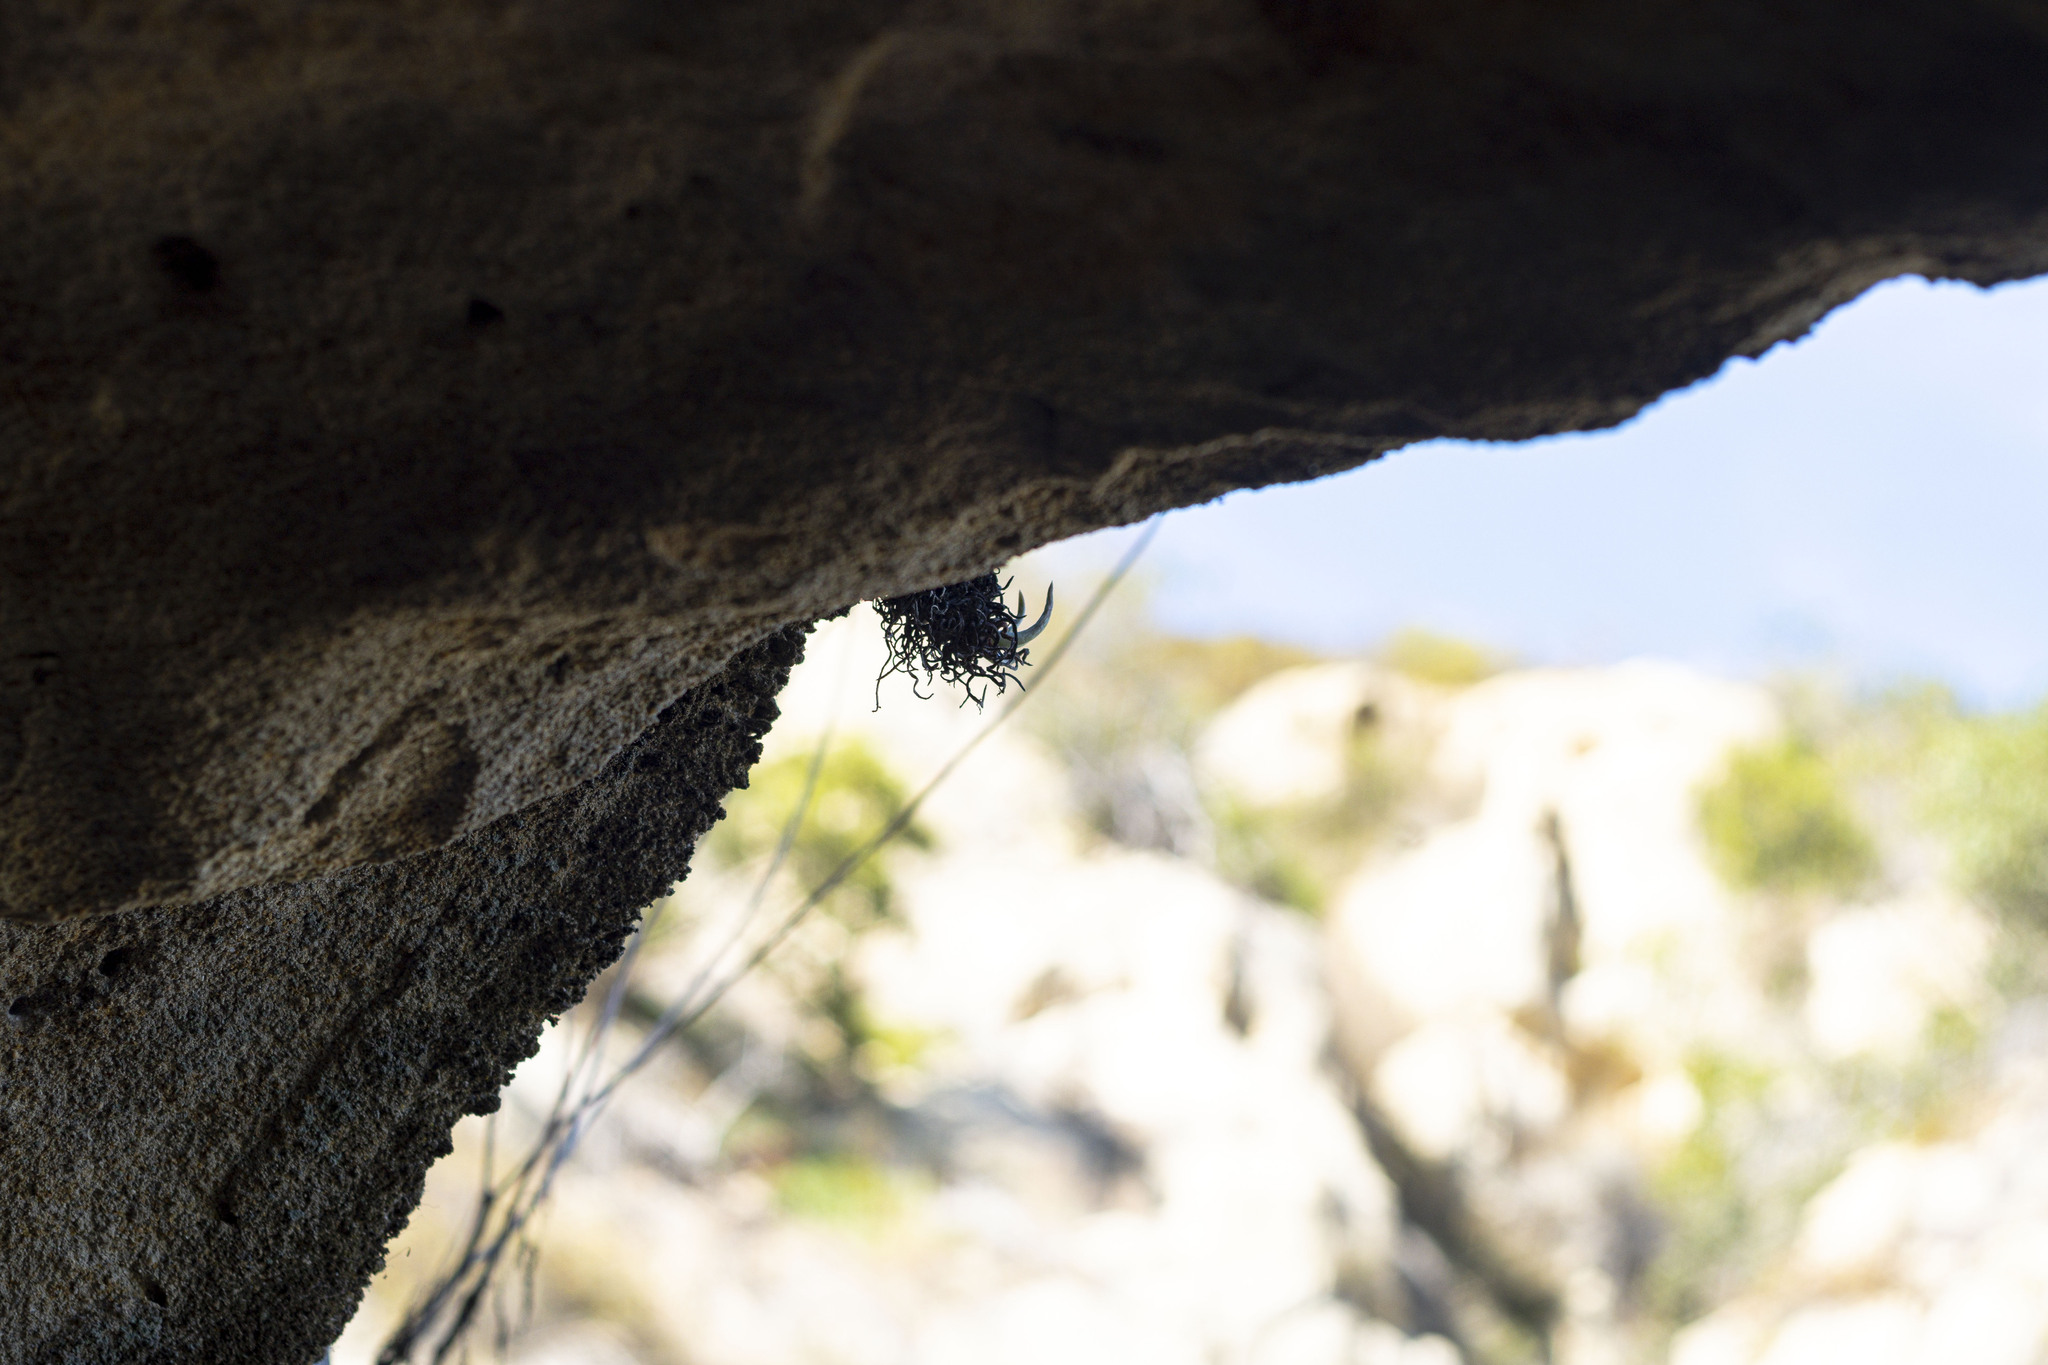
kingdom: Plantae
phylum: Tracheophyta
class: Magnoliopsida
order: Saxifragales
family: Crassulaceae
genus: Dudleya
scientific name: Dudleya edulis
